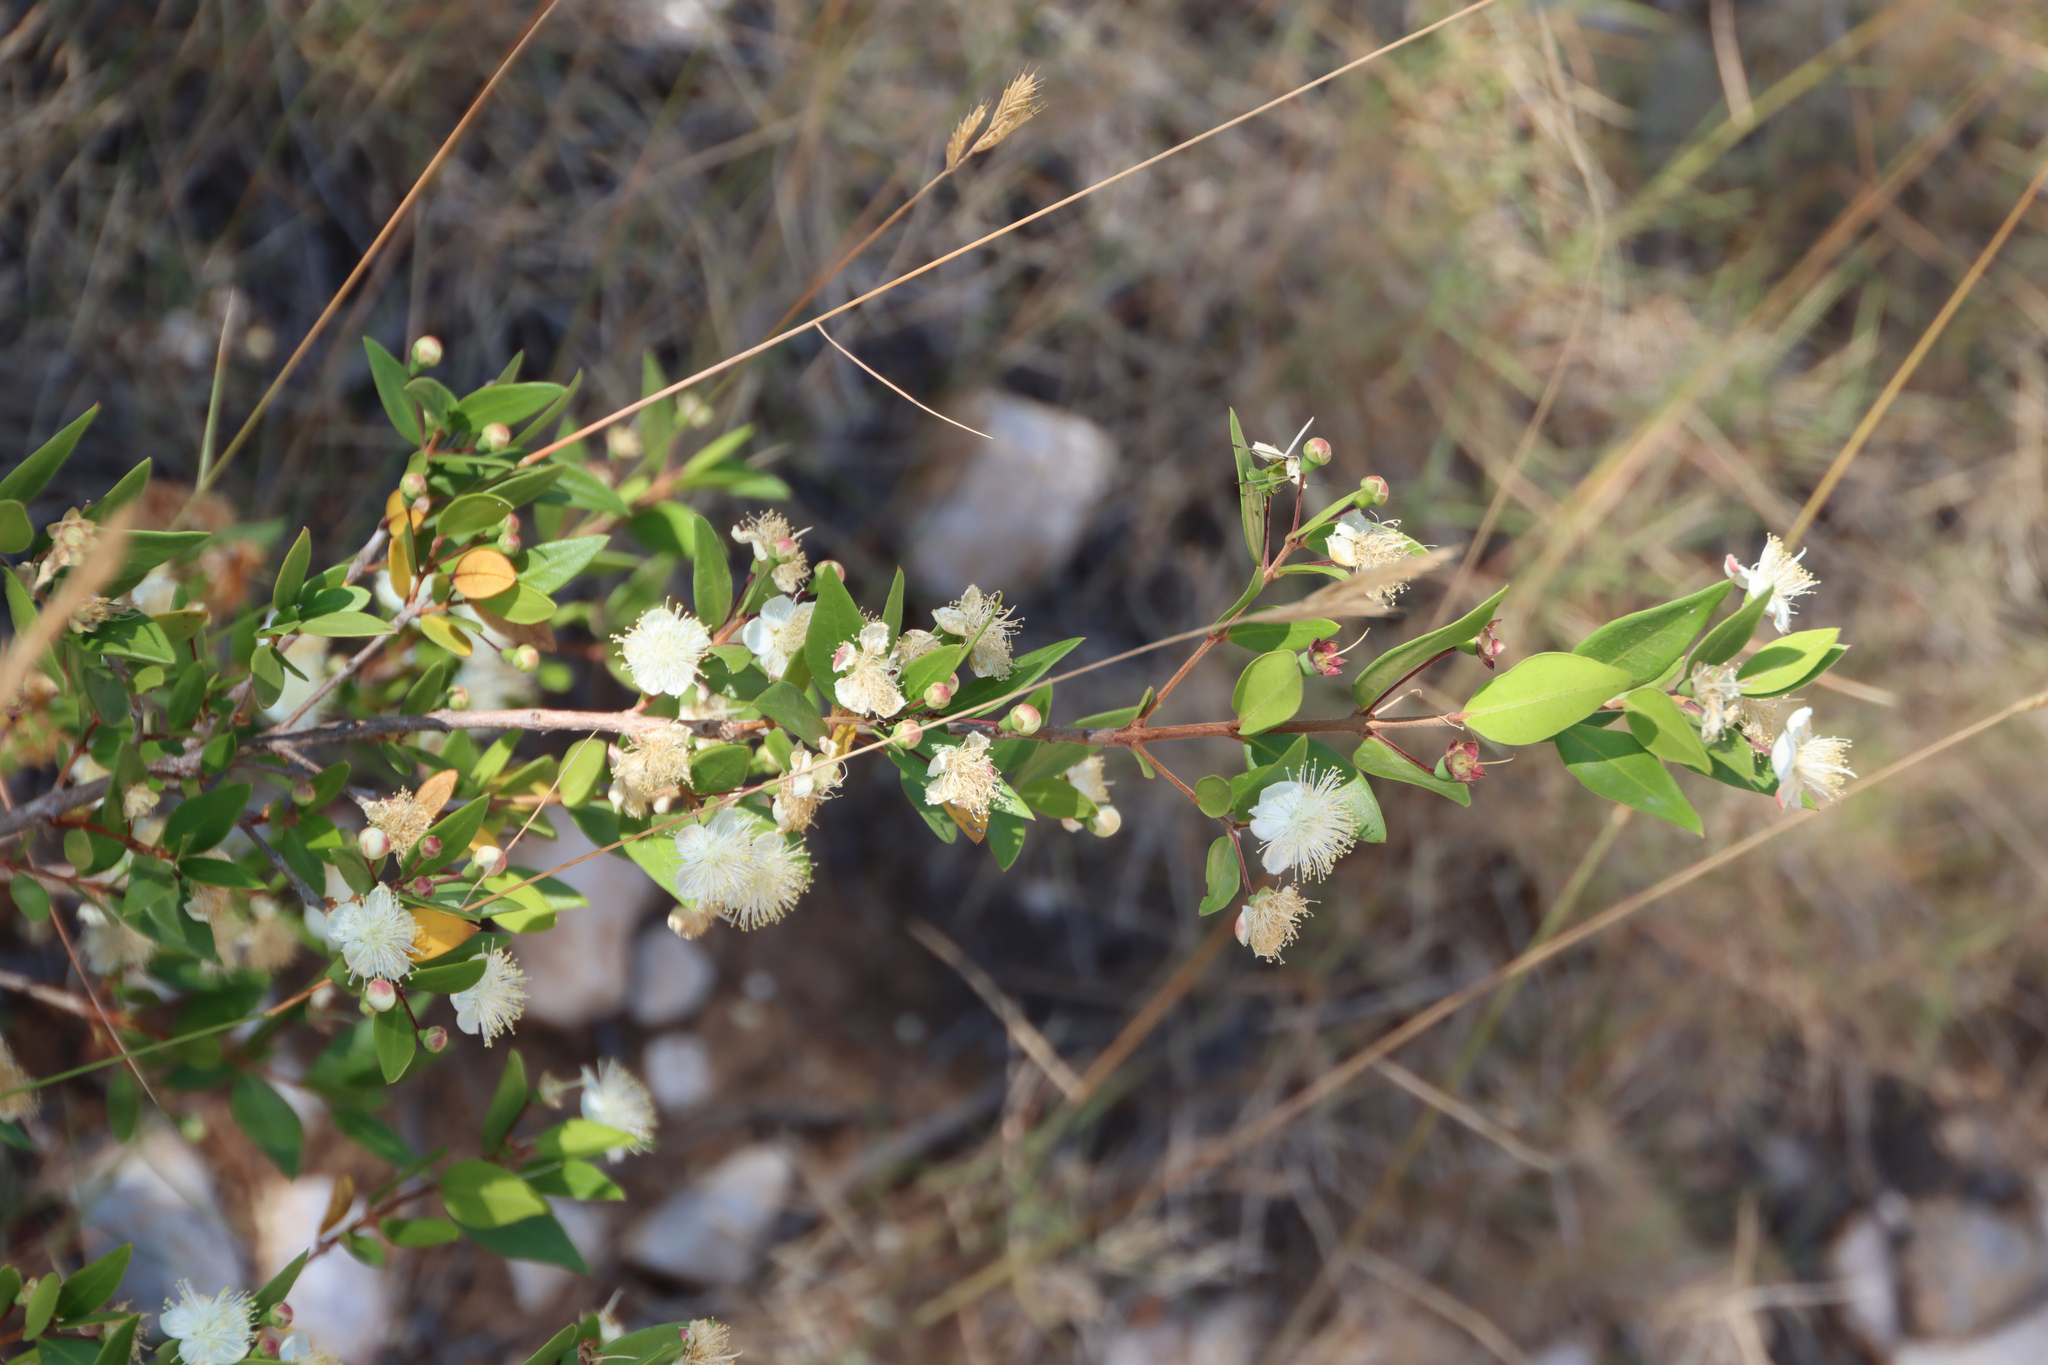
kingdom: Plantae
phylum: Tracheophyta
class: Magnoliopsida
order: Myrtales
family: Myrtaceae
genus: Myrtus
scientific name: Myrtus communis
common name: Myrtle
